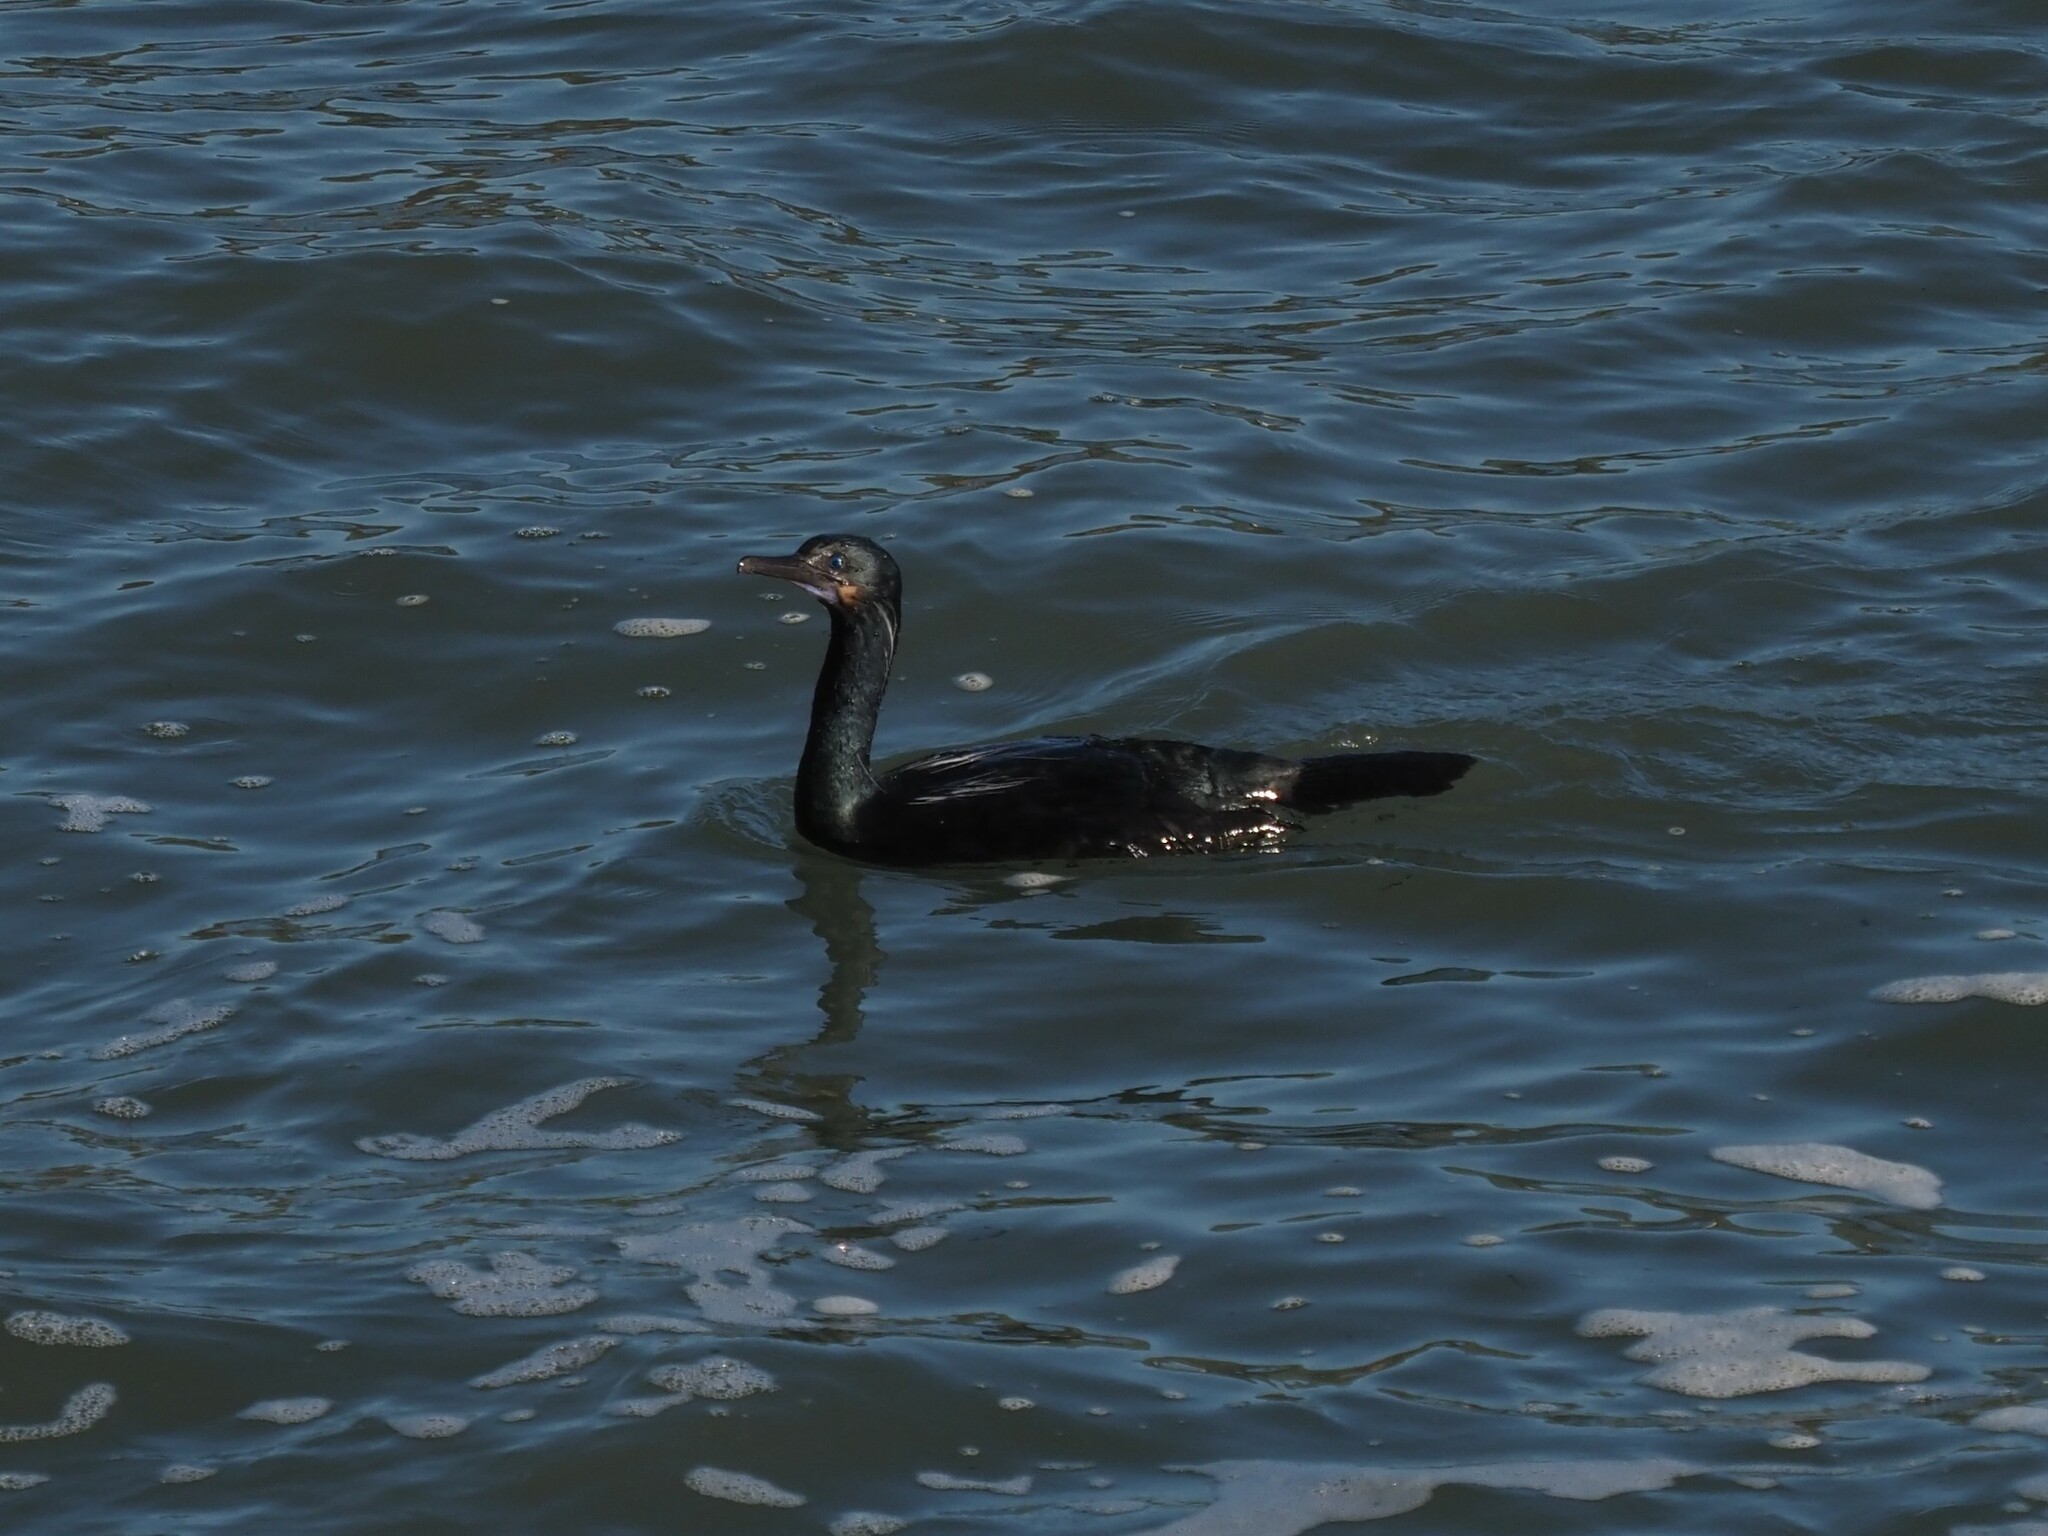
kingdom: Animalia
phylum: Chordata
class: Aves
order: Suliformes
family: Phalacrocoracidae
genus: Urile
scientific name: Urile penicillatus
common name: Brandt's cormorant
